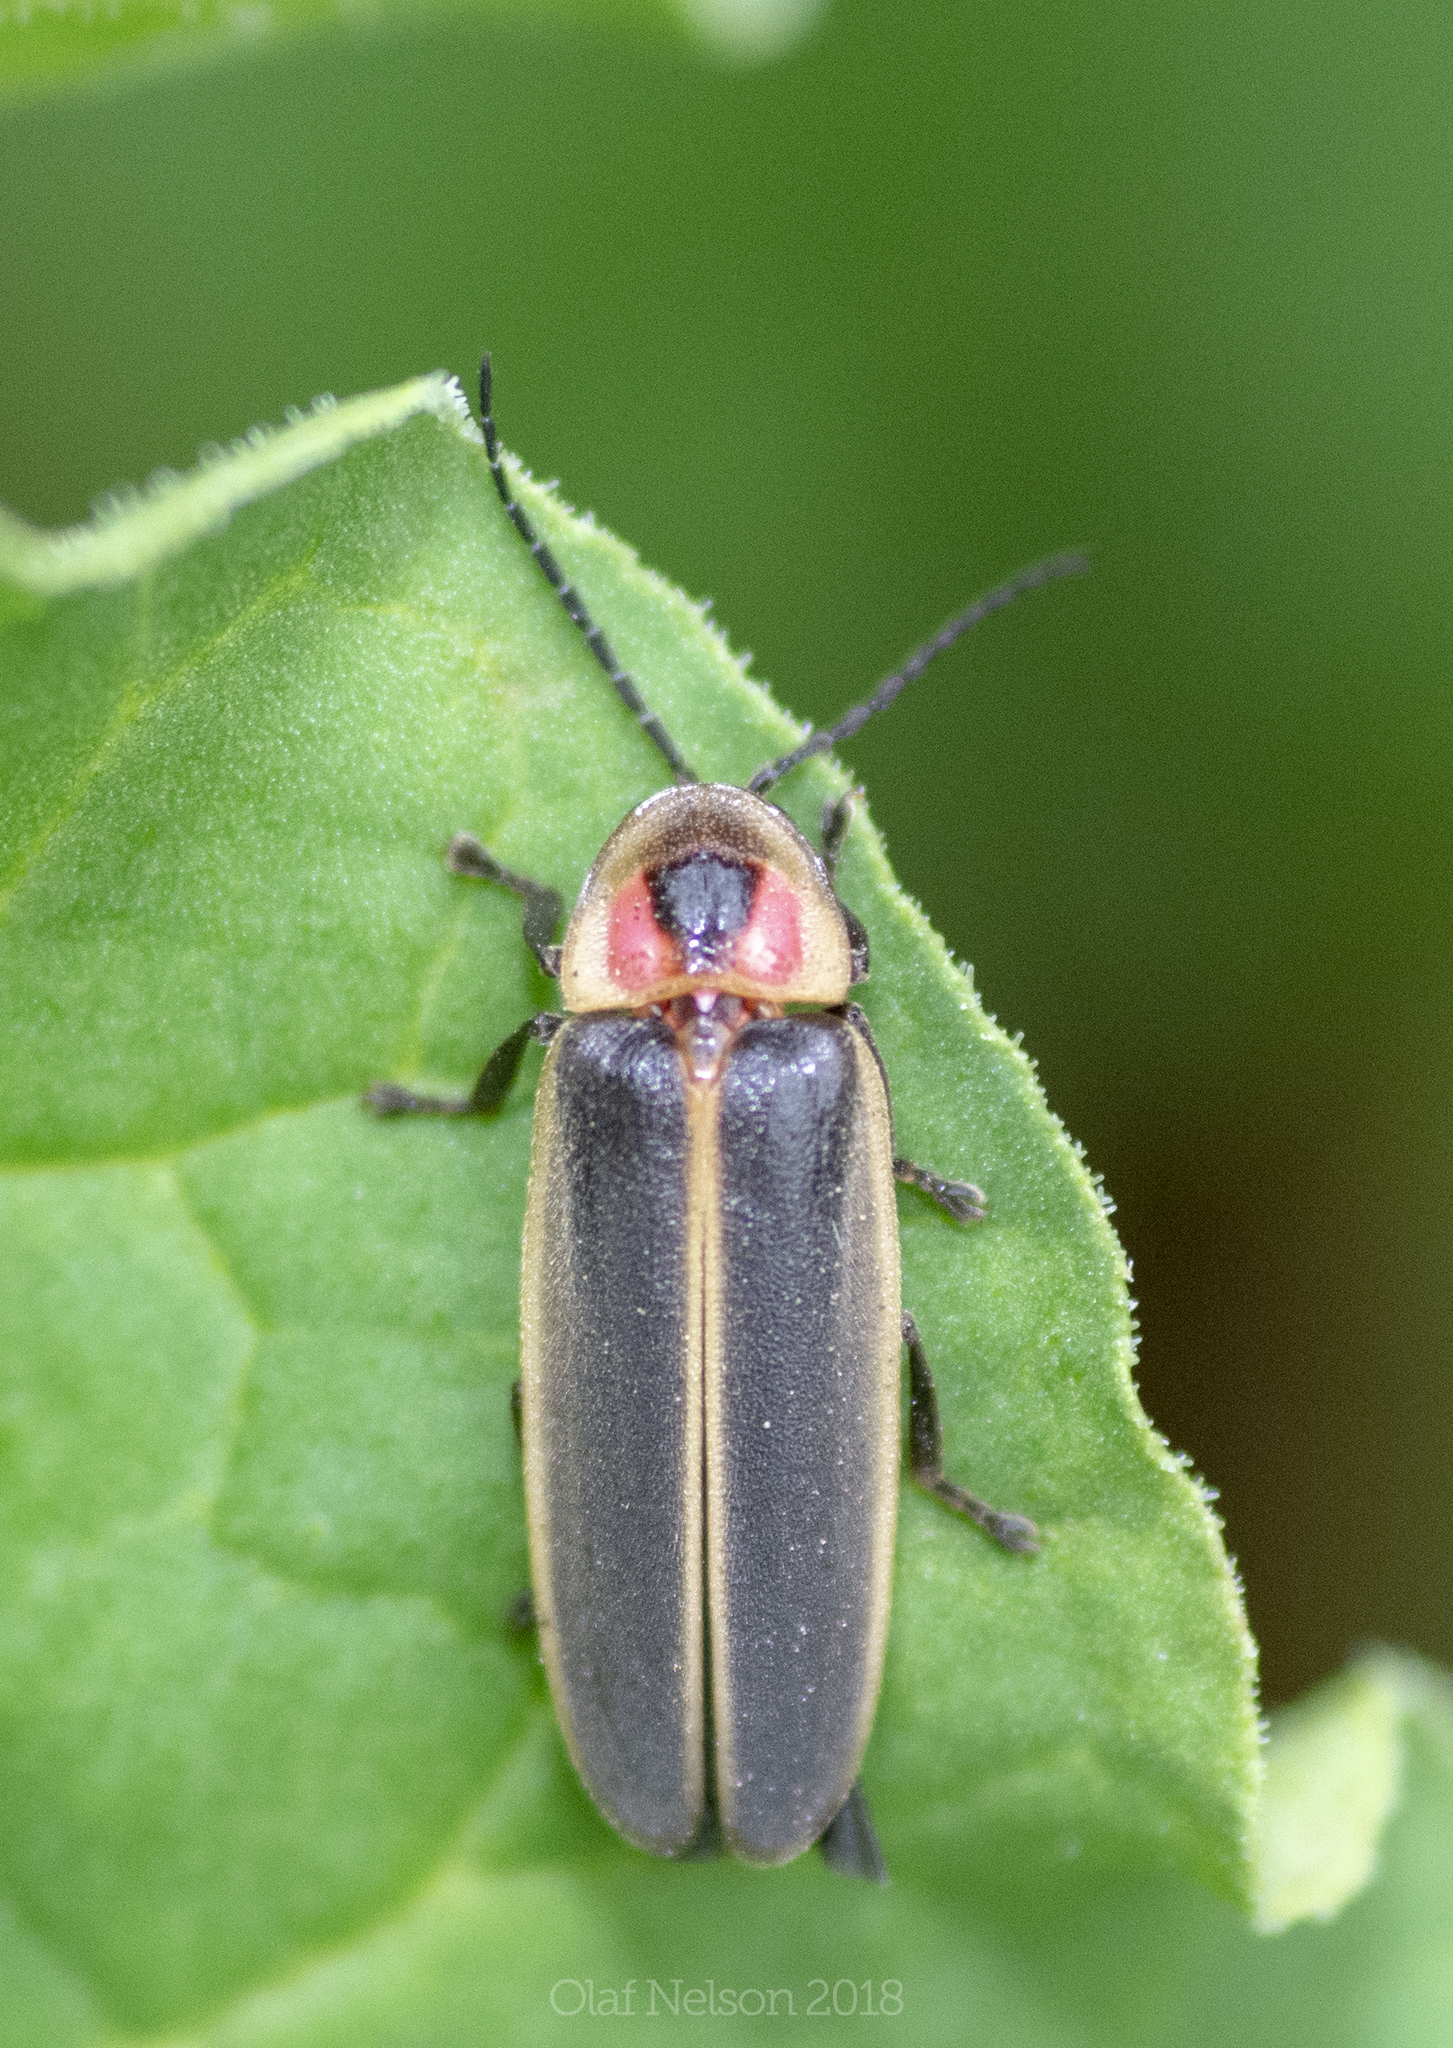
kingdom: Animalia
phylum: Arthropoda
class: Insecta
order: Coleoptera
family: Lampyridae
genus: Photinus
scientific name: Photinus pyralis
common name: Big dipper firefly
